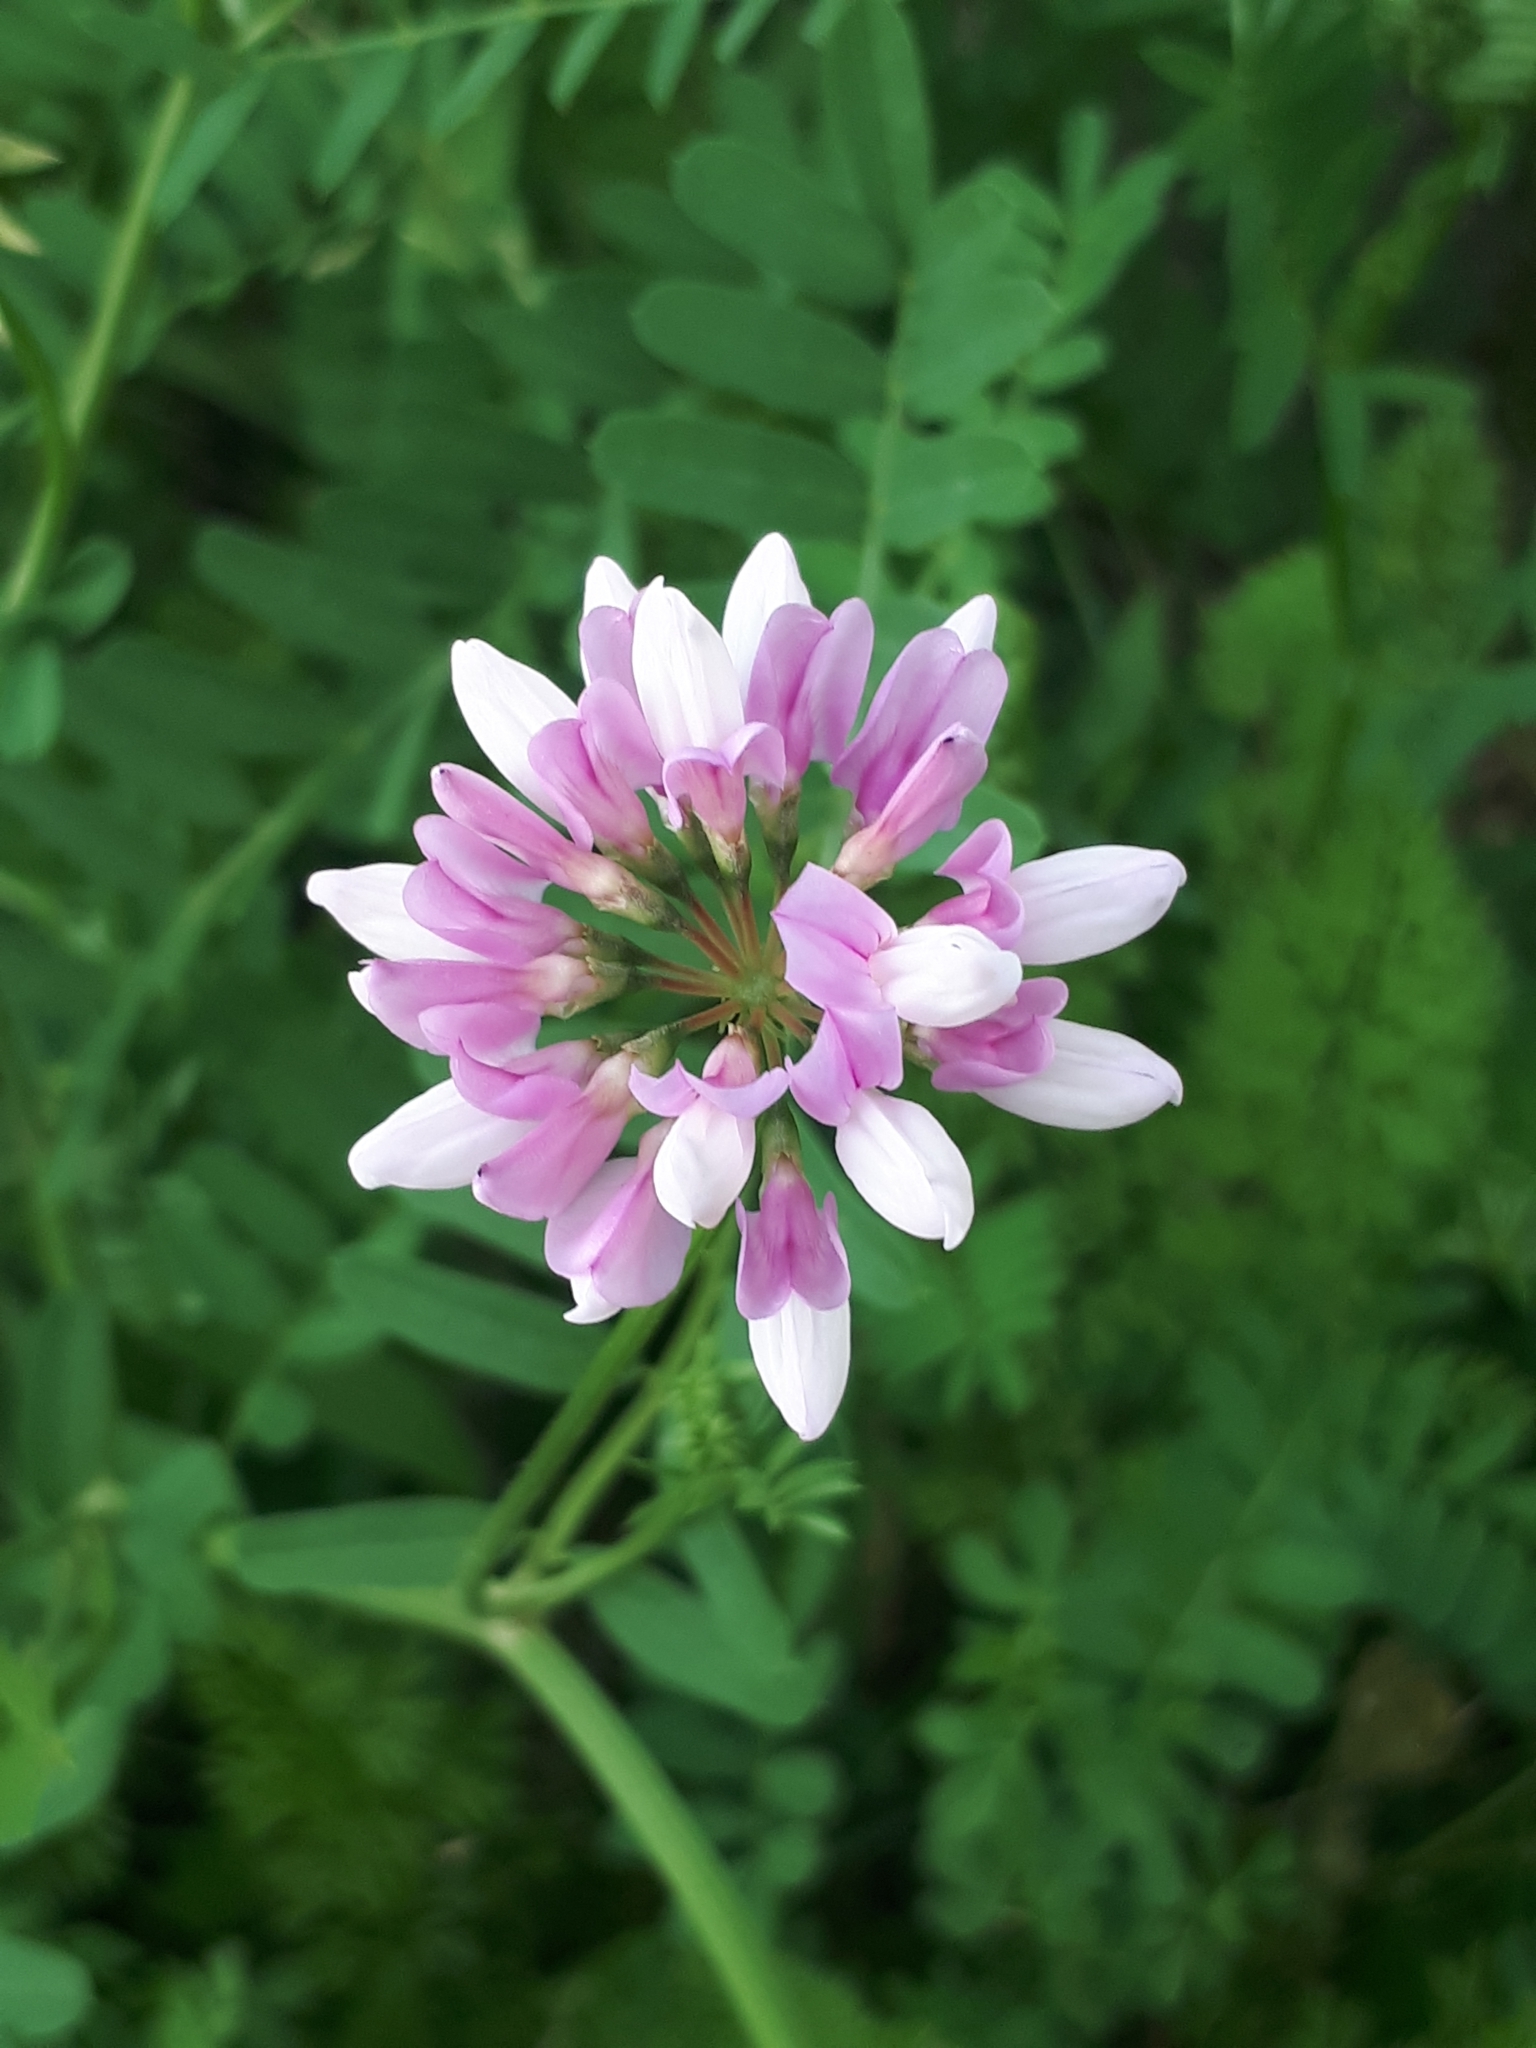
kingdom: Plantae
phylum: Tracheophyta
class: Magnoliopsida
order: Fabales
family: Fabaceae
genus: Coronilla
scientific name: Coronilla varia
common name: Crownvetch
